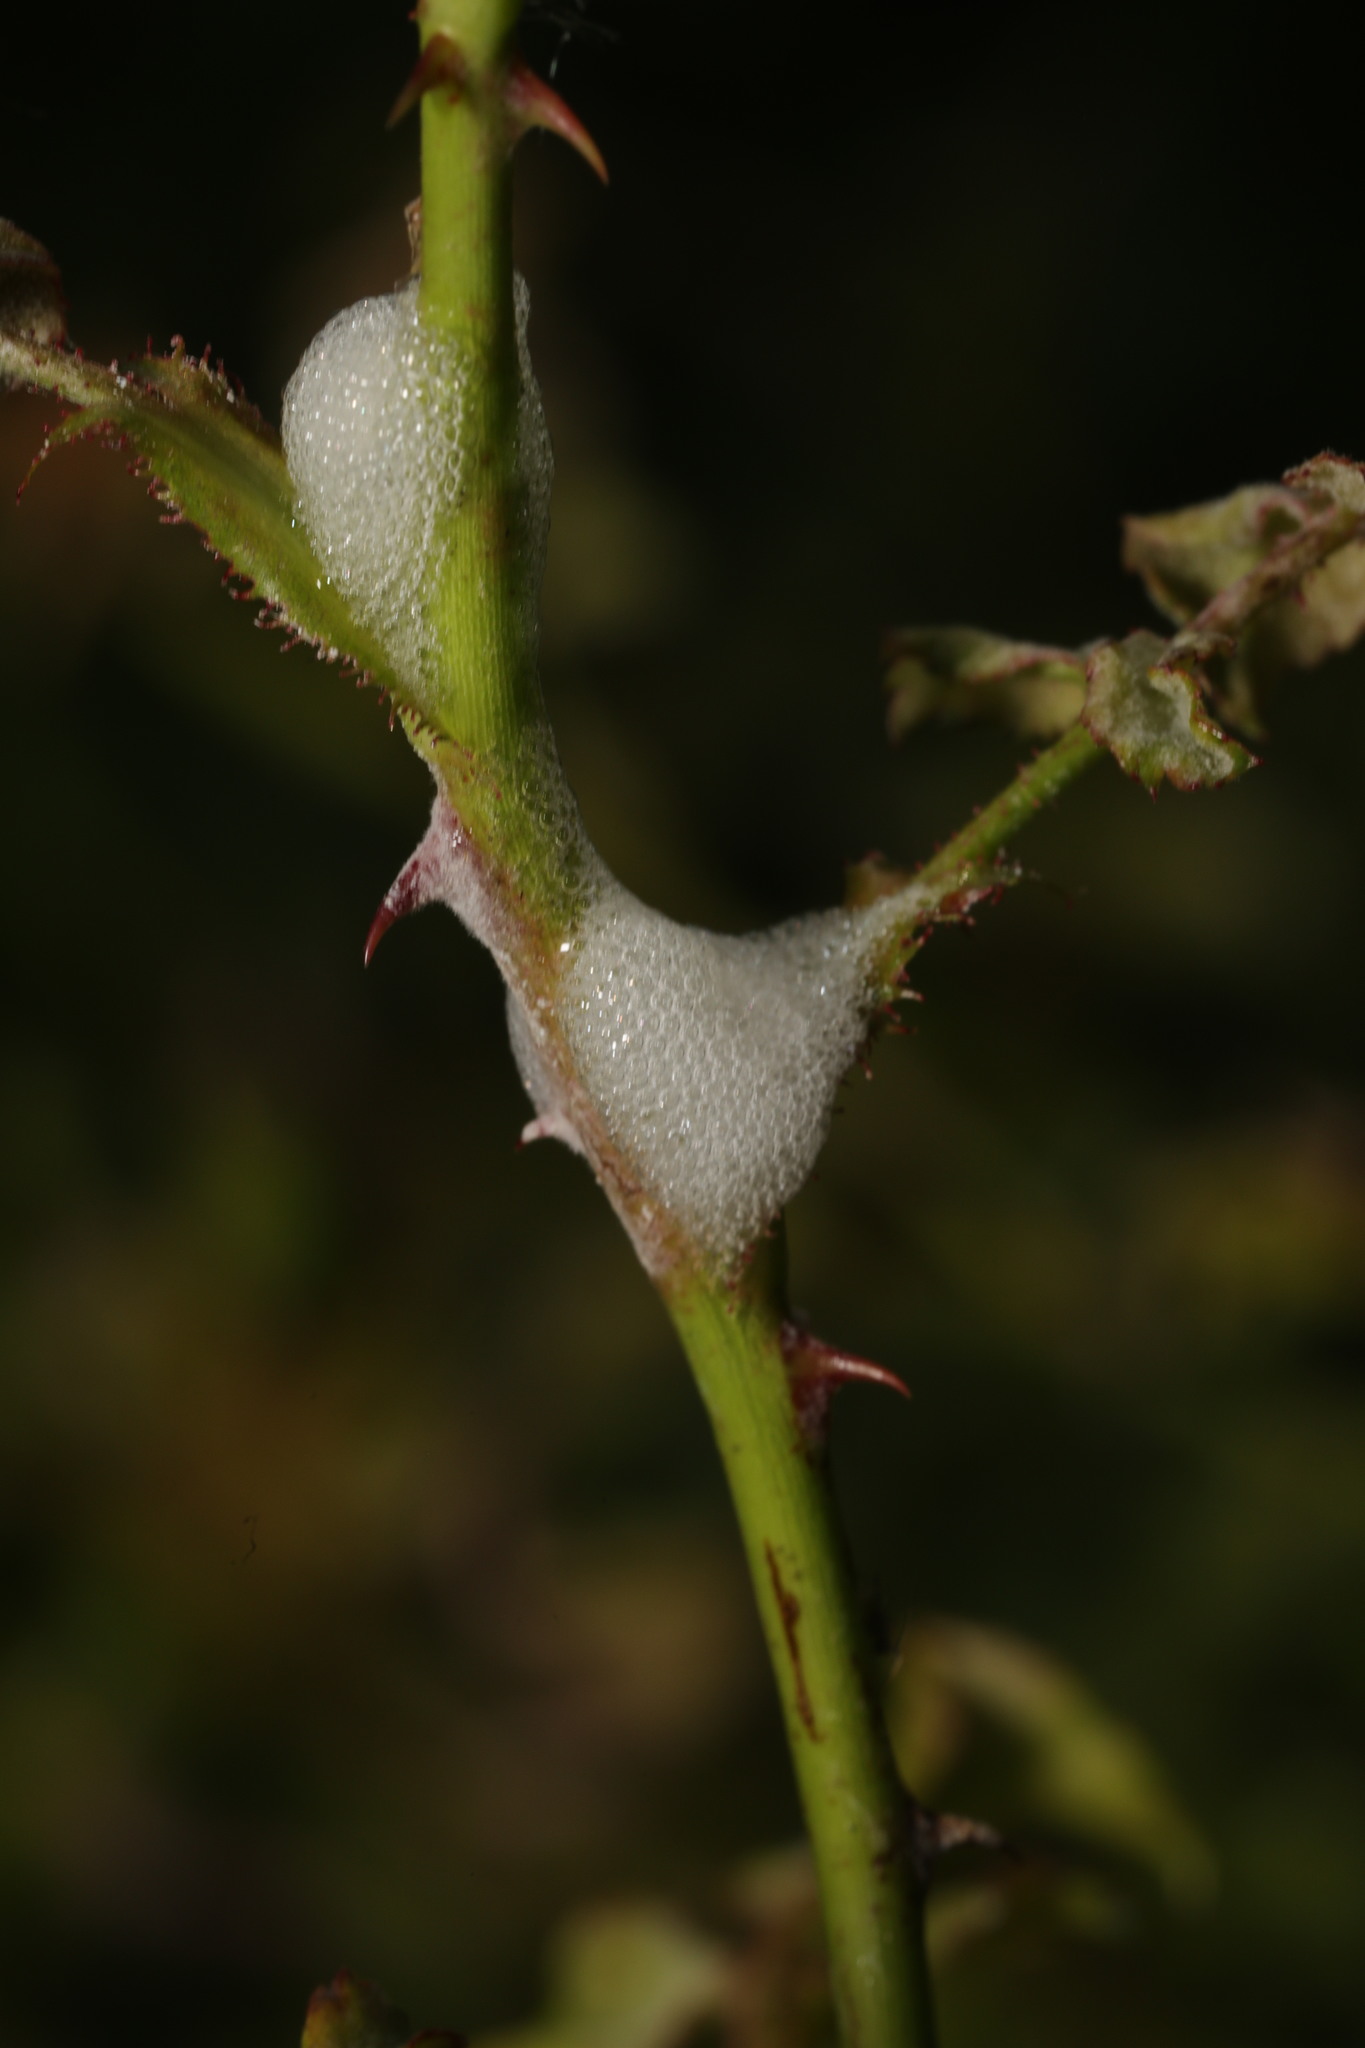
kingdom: Animalia
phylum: Arthropoda
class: Insecta
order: Hemiptera
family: Aphrophoridae
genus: Philaenus
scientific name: Philaenus spumarius
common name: Meadow spittlebug
